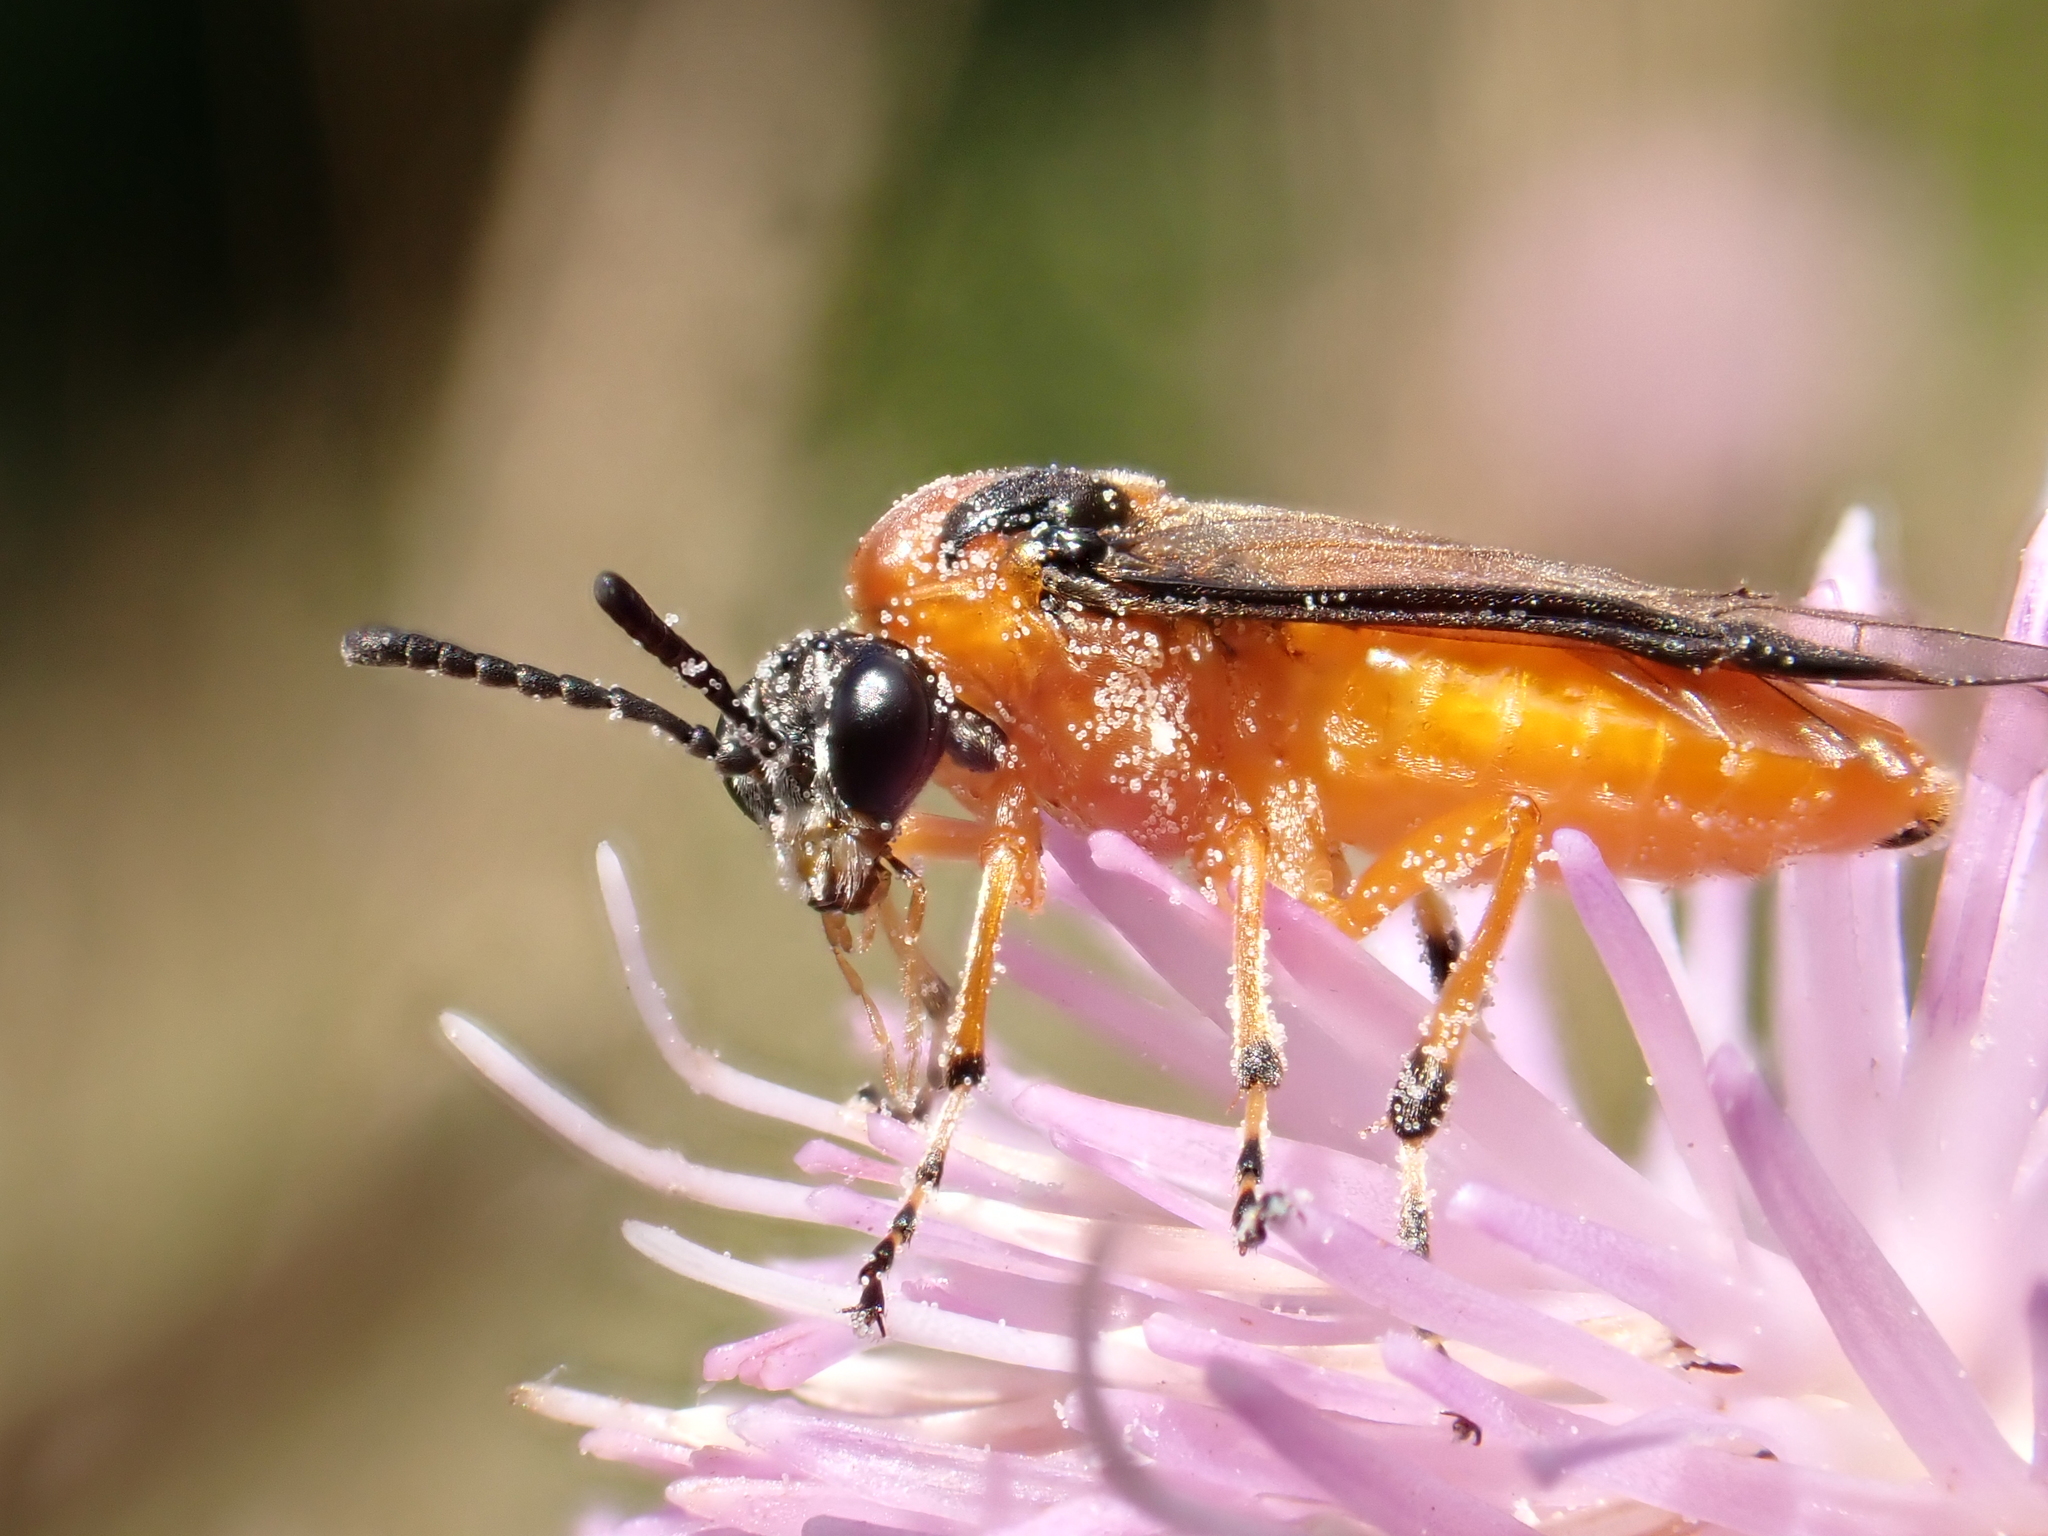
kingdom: Animalia
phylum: Arthropoda
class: Insecta
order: Hymenoptera
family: Tenthredinidae
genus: Athalia
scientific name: Athalia rosae
